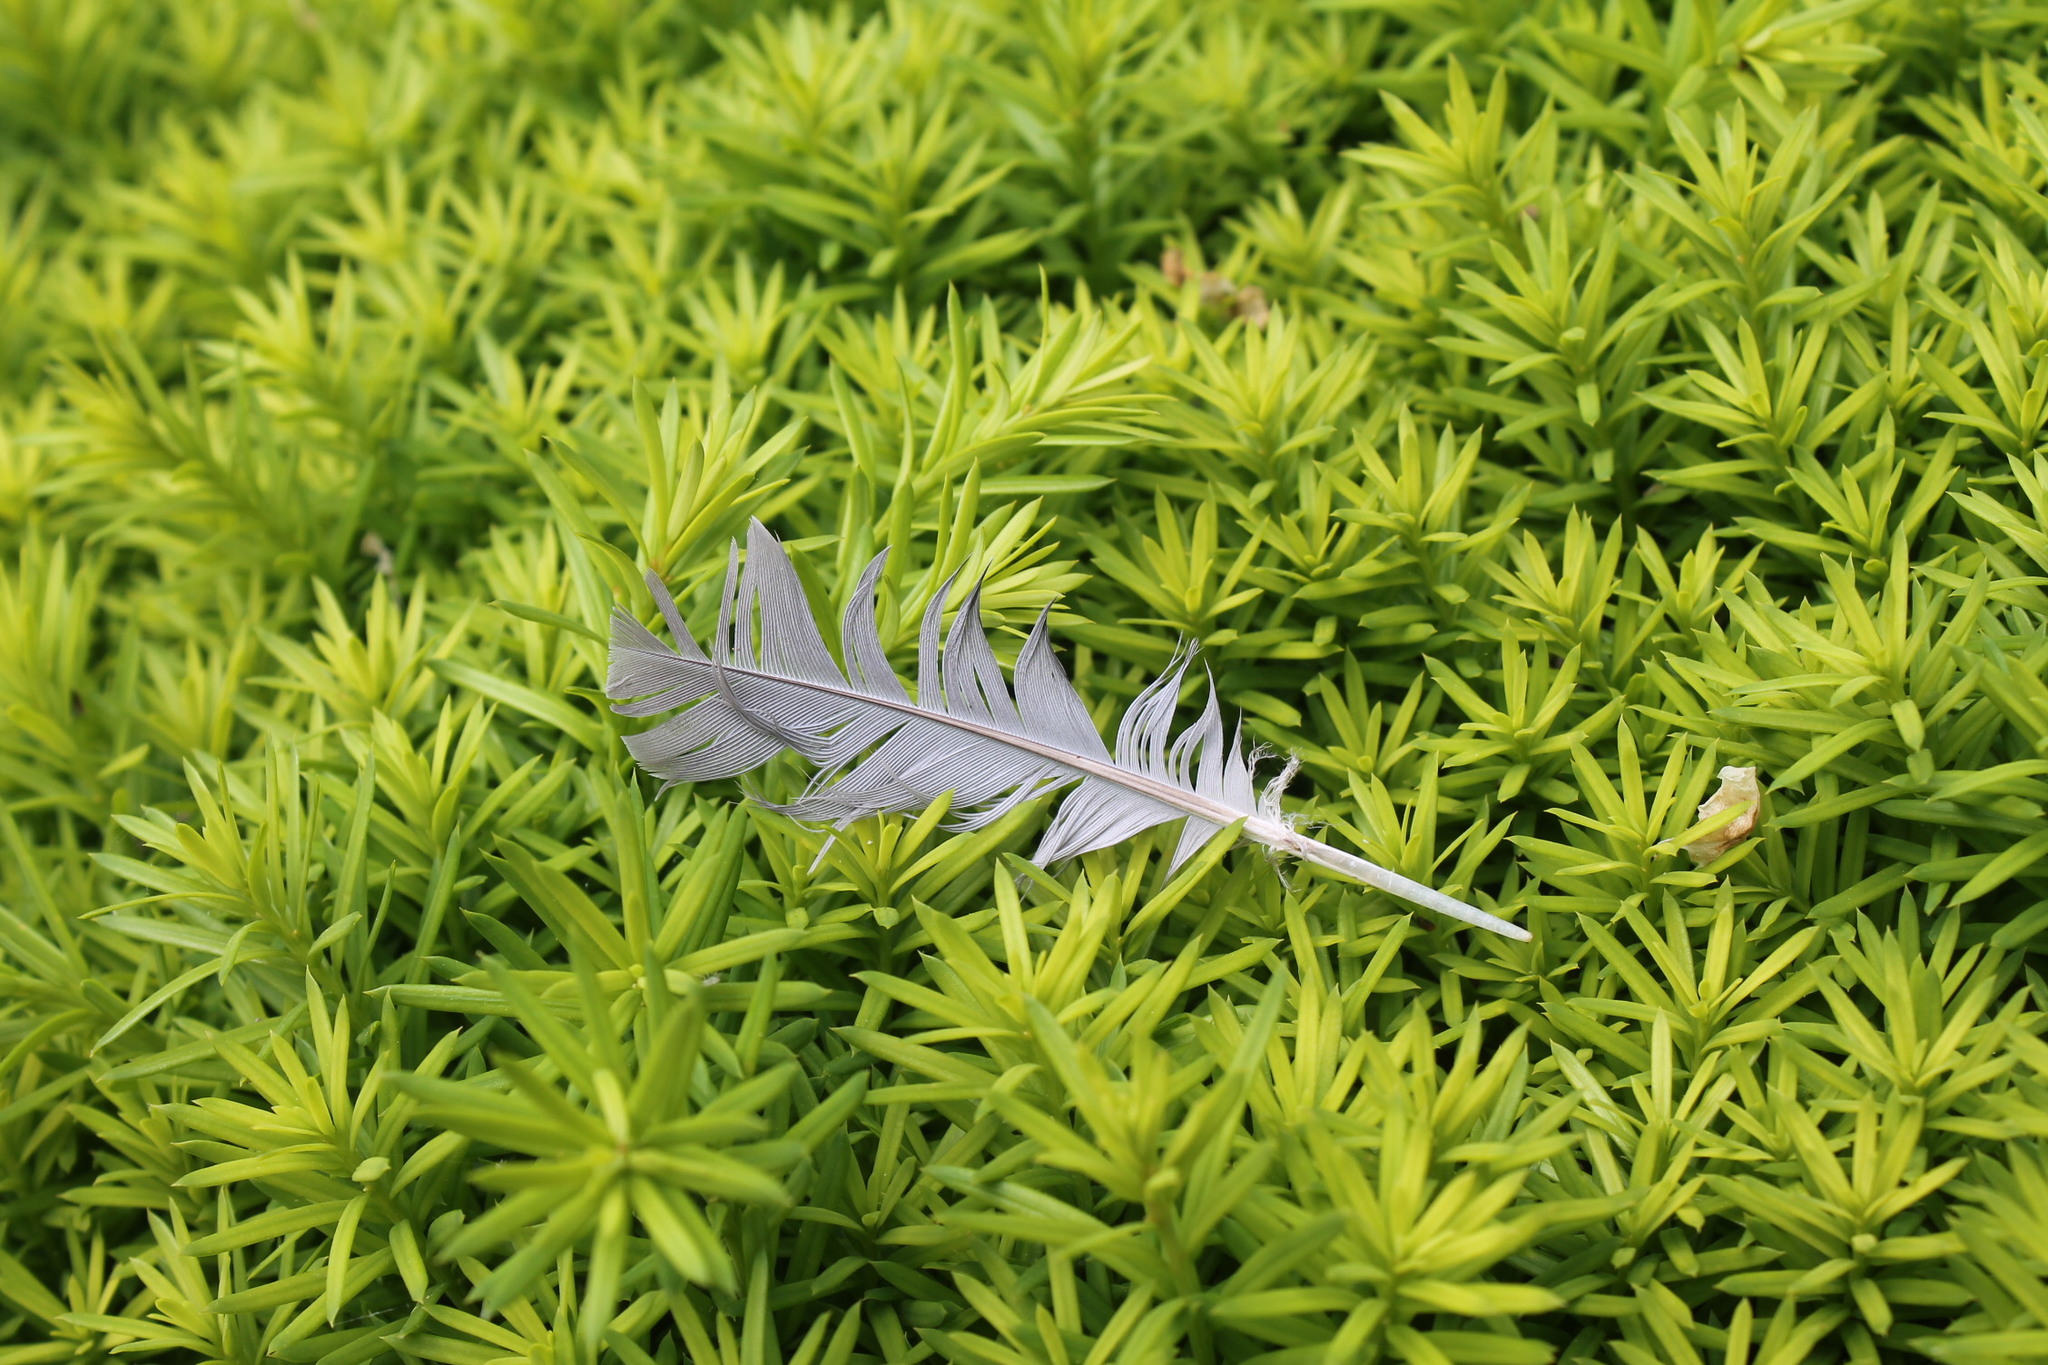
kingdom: Animalia
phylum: Chordata
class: Aves
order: Columbiformes
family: Columbidae
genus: Zenaida
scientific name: Zenaida macroura
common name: Mourning dove
